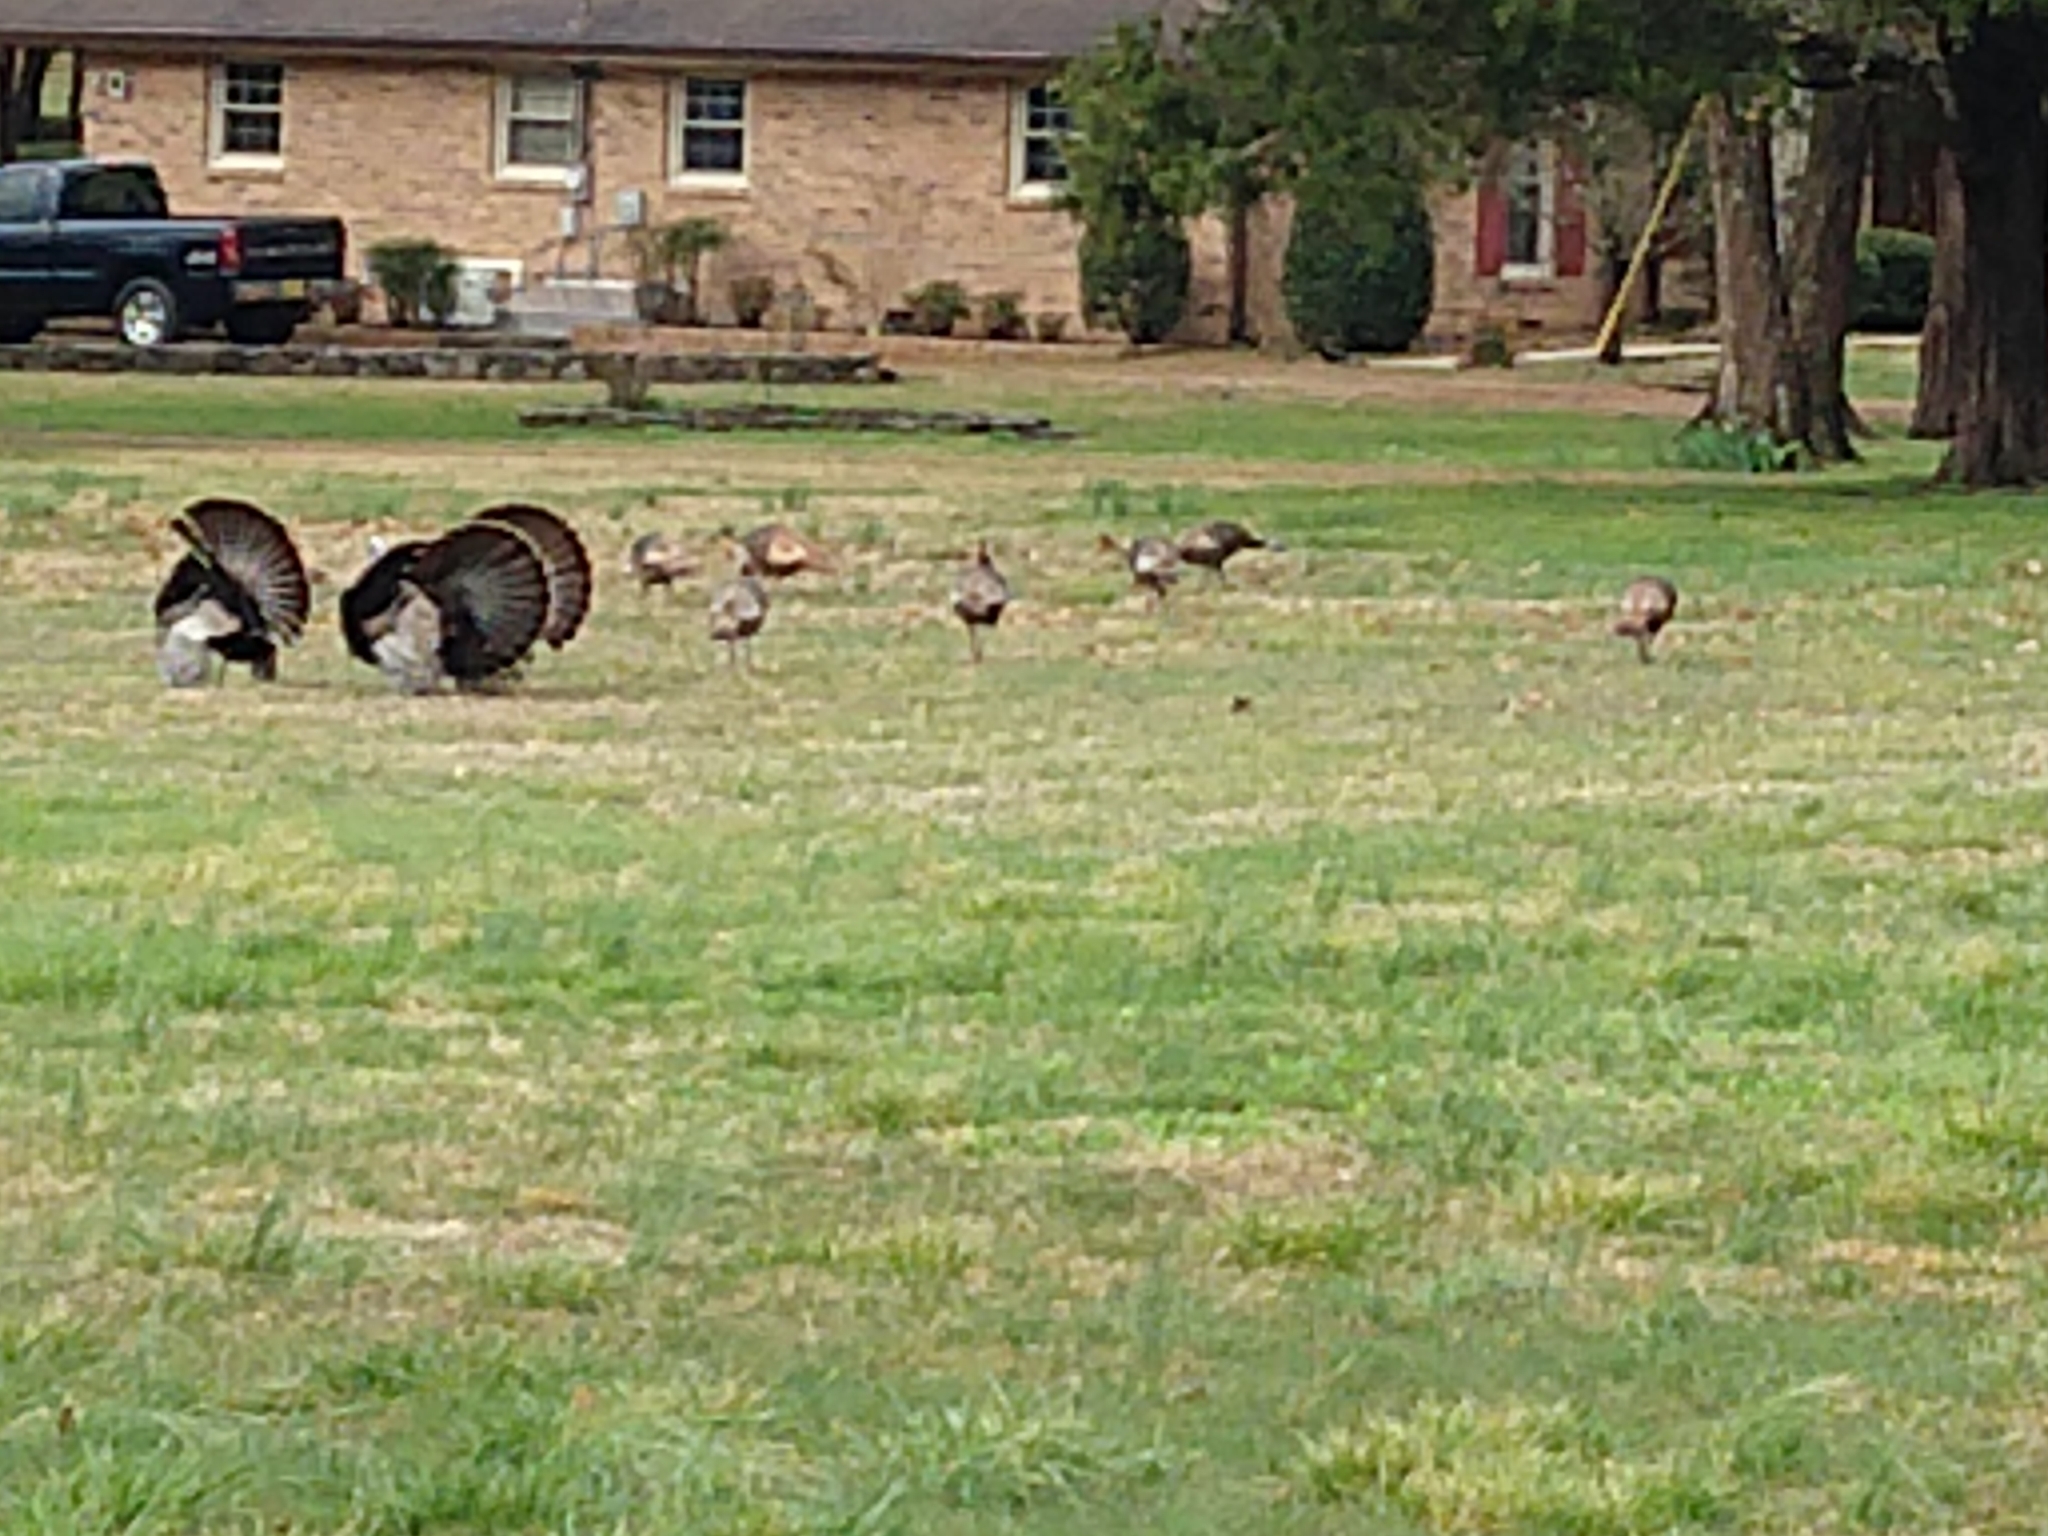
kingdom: Animalia
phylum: Chordata
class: Aves
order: Galliformes
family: Phasianidae
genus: Meleagris
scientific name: Meleagris gallopavo
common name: Wild turkey
